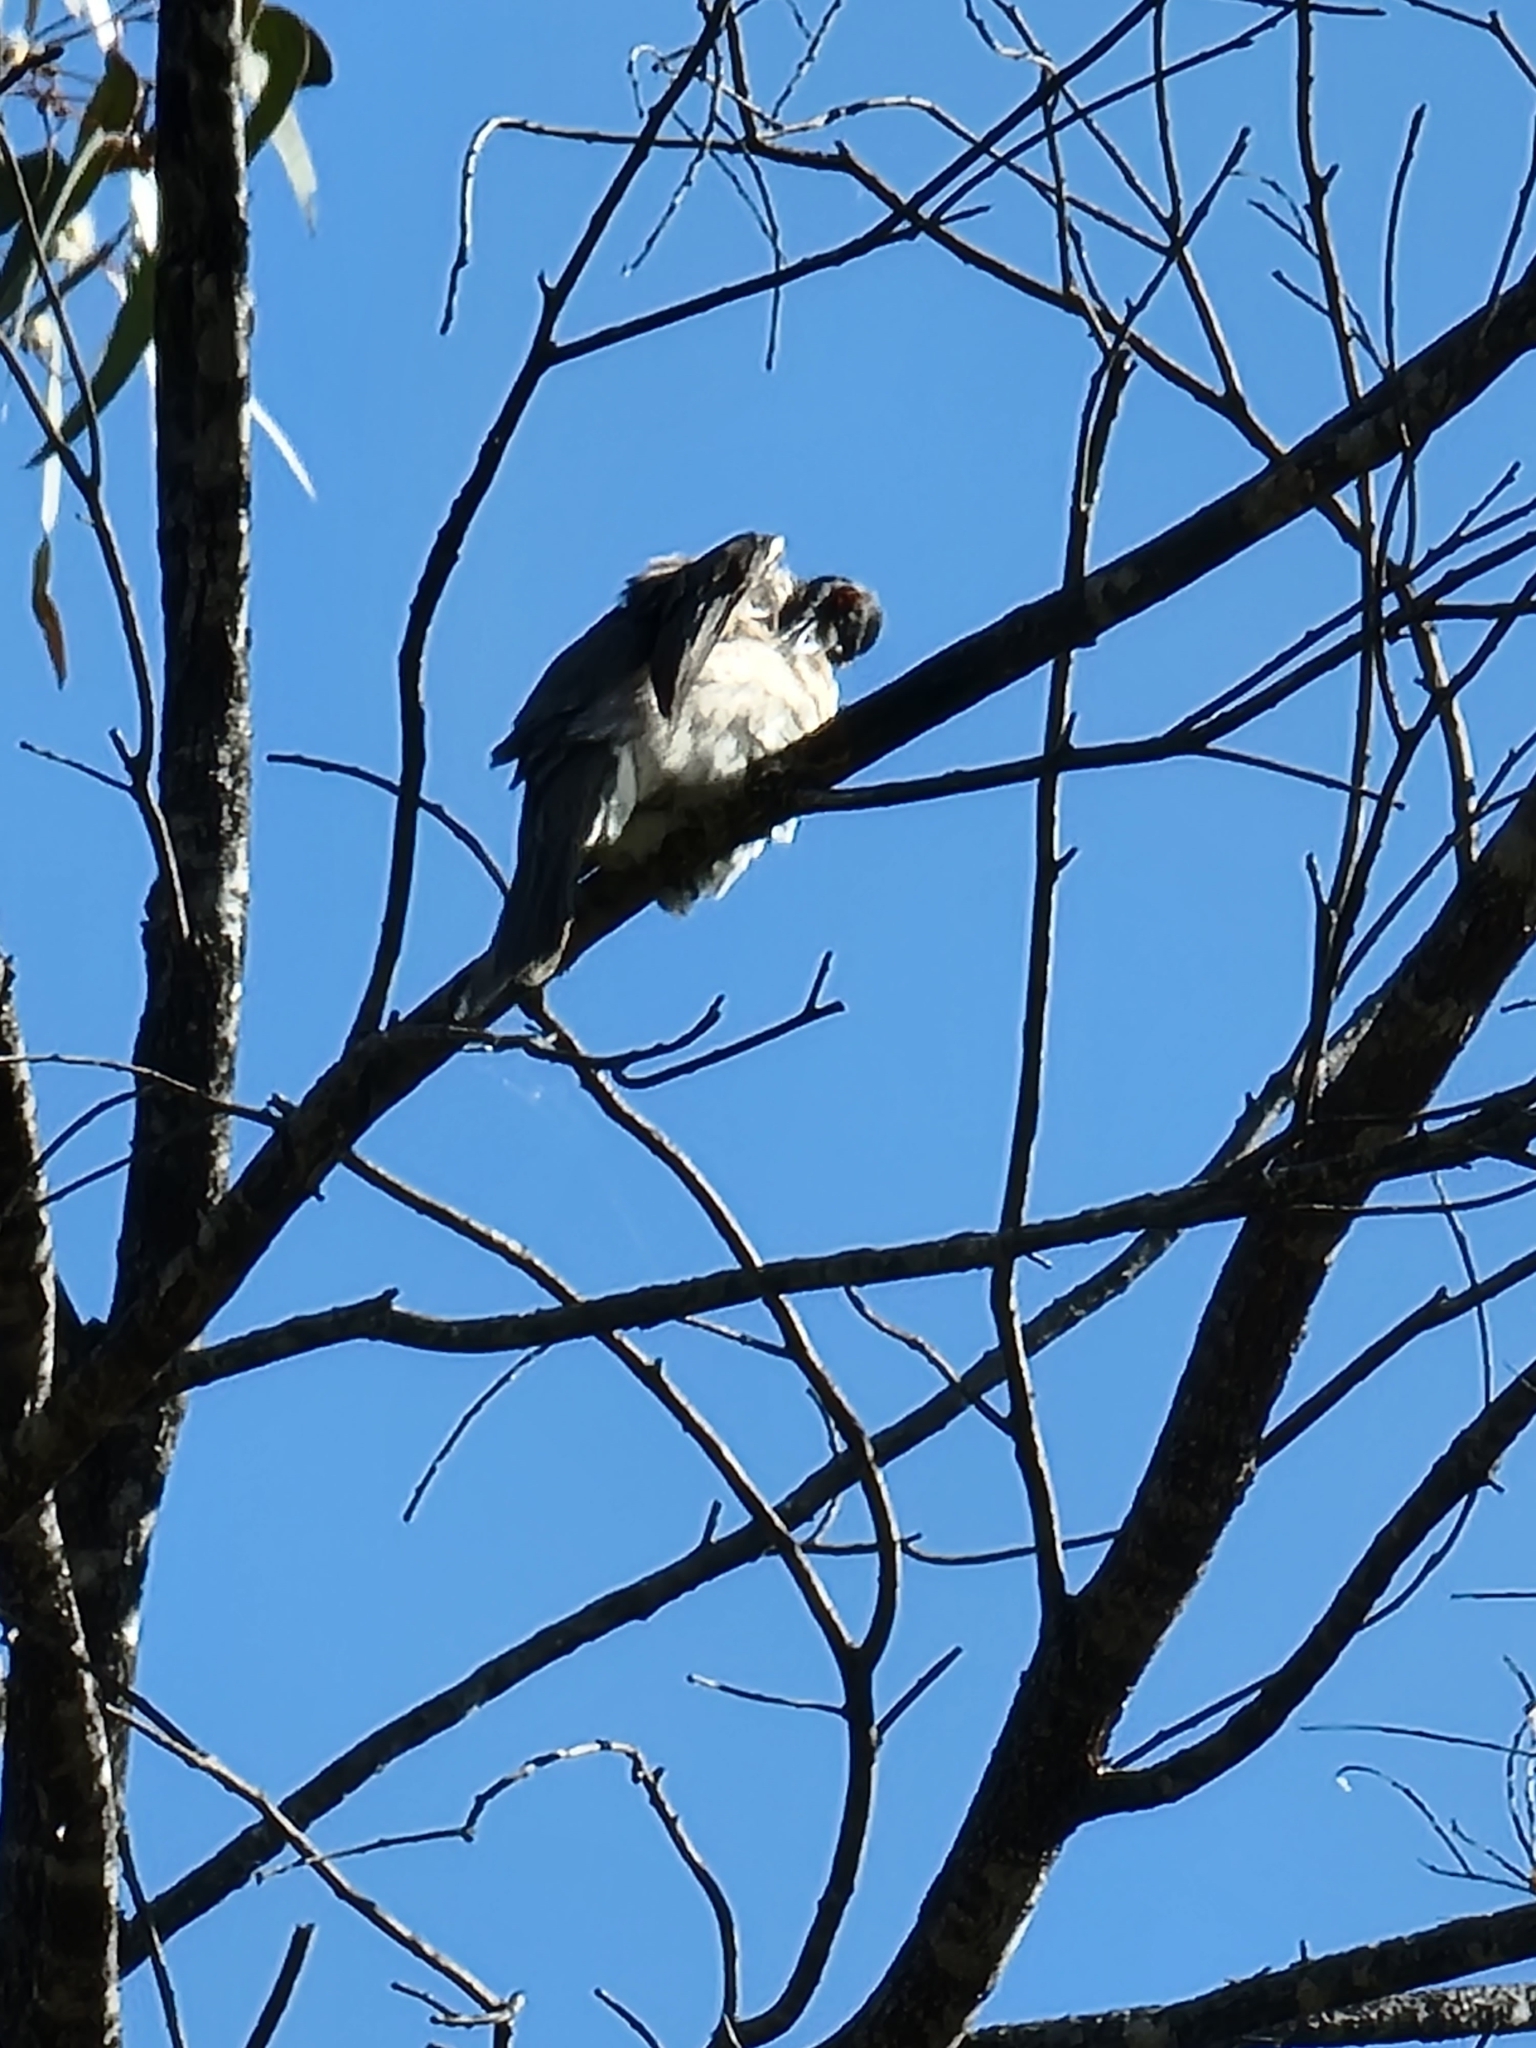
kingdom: Animalia
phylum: Chordata
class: Aves
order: Passeriformes
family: Meliphagidae
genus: Philemon
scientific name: Philemon corniculatus
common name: Noisy friarbird
